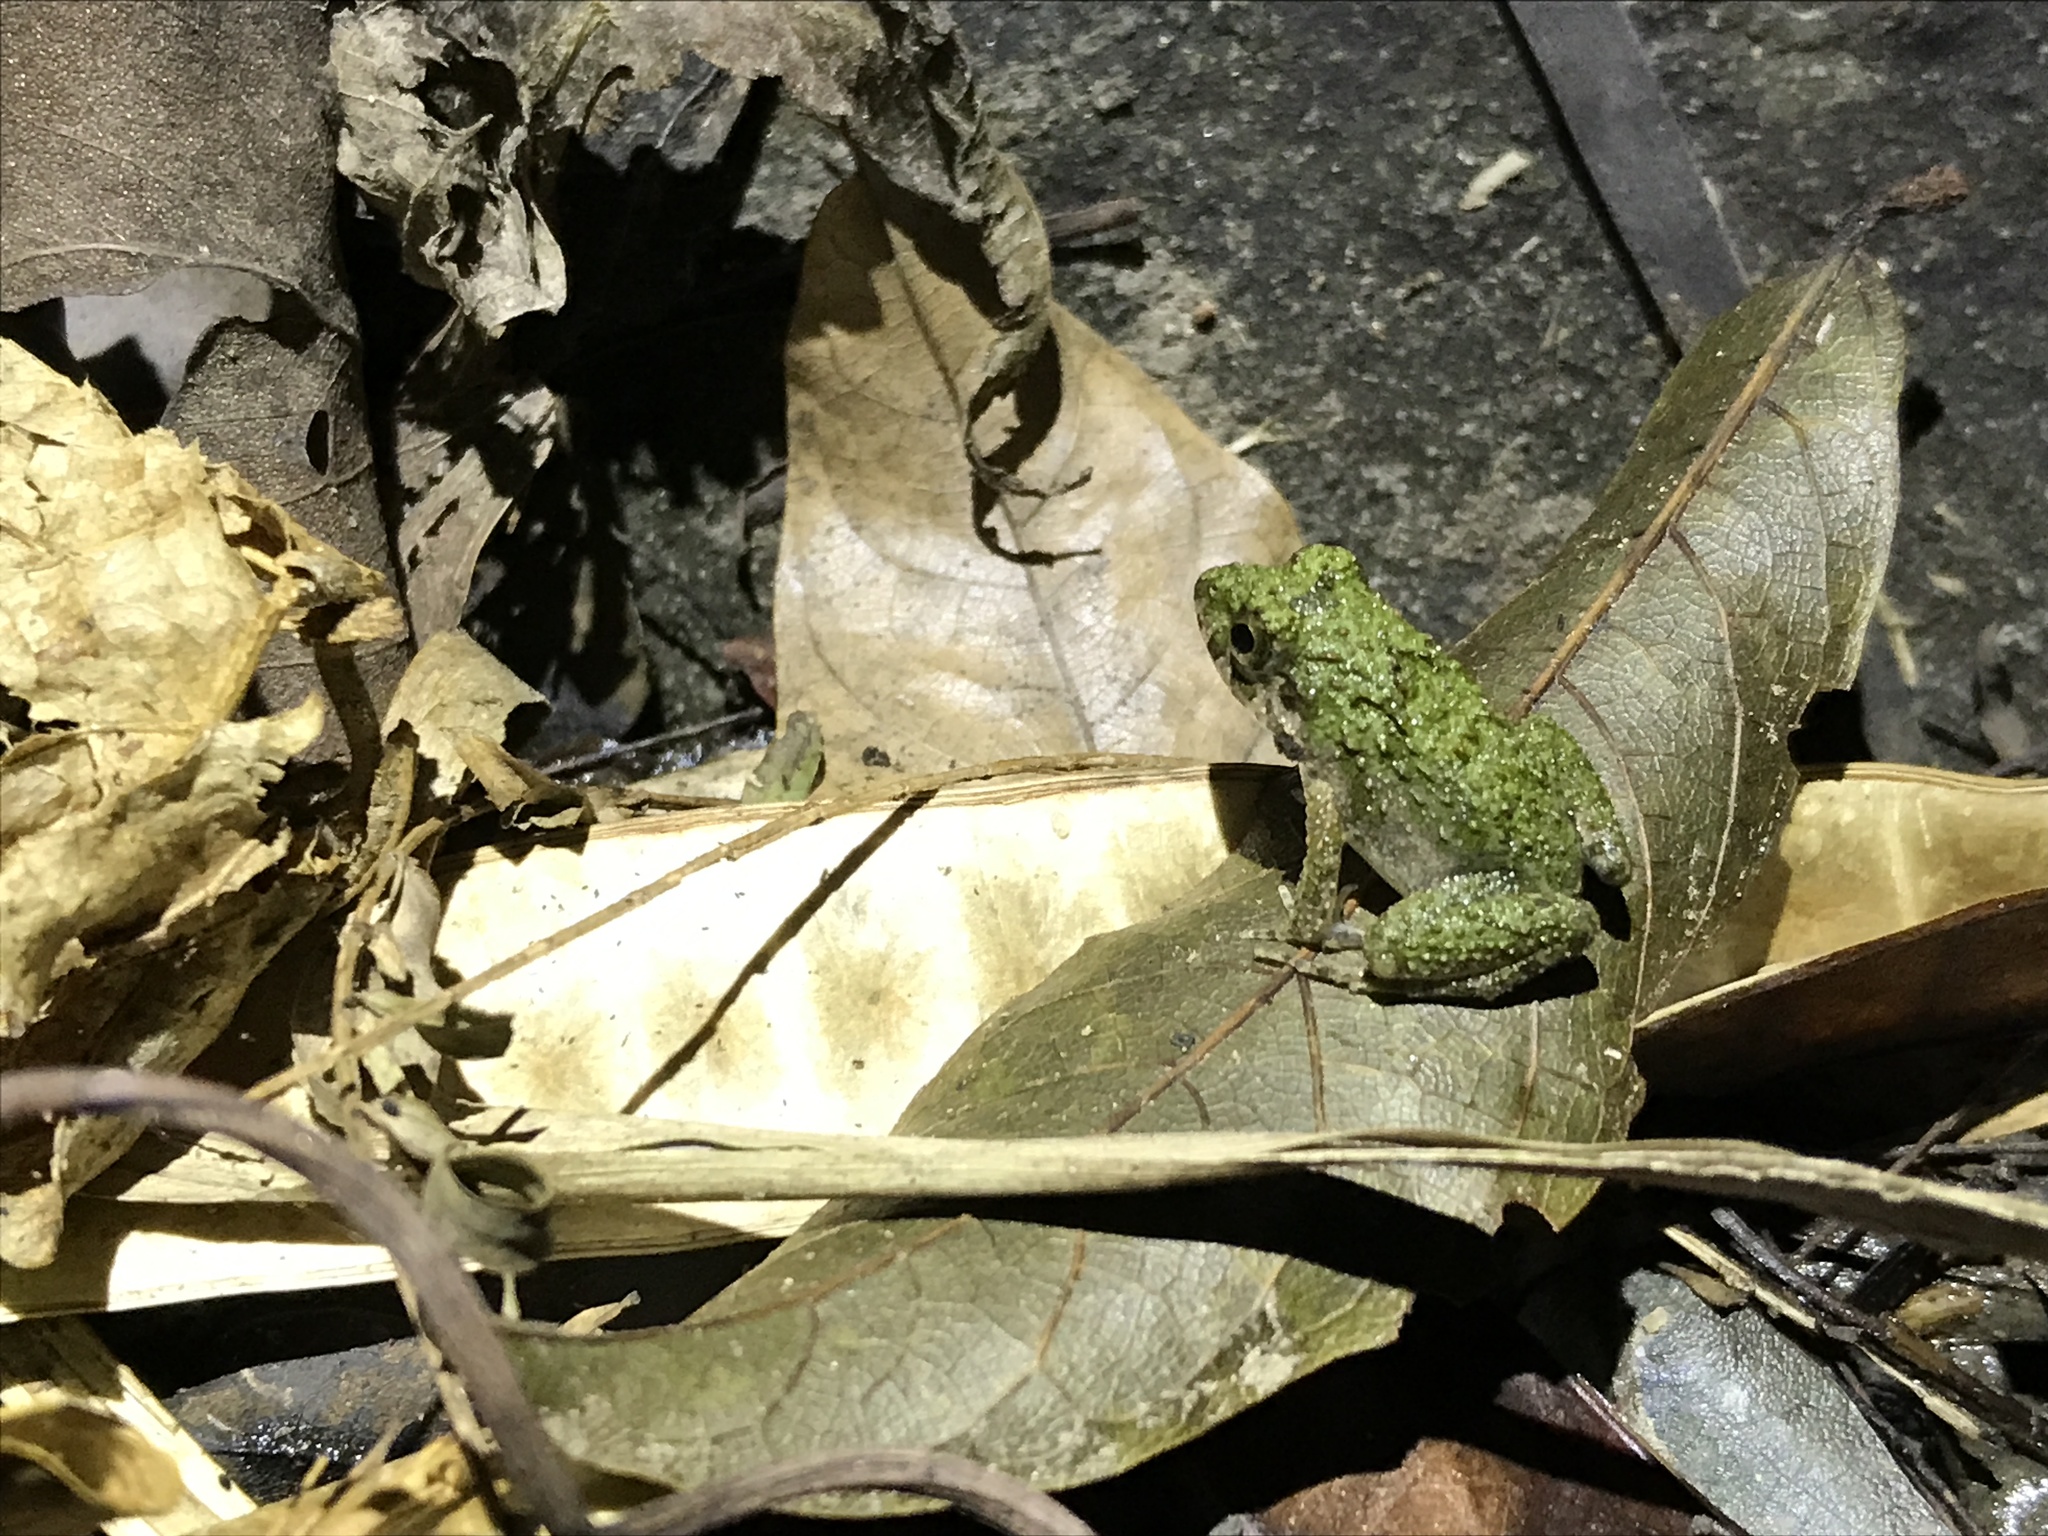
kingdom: Animalia
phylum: Chordata
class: Amphibia
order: Anura
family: Dicroglossidae
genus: Fejervarya
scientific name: Fejervarya multistriata
